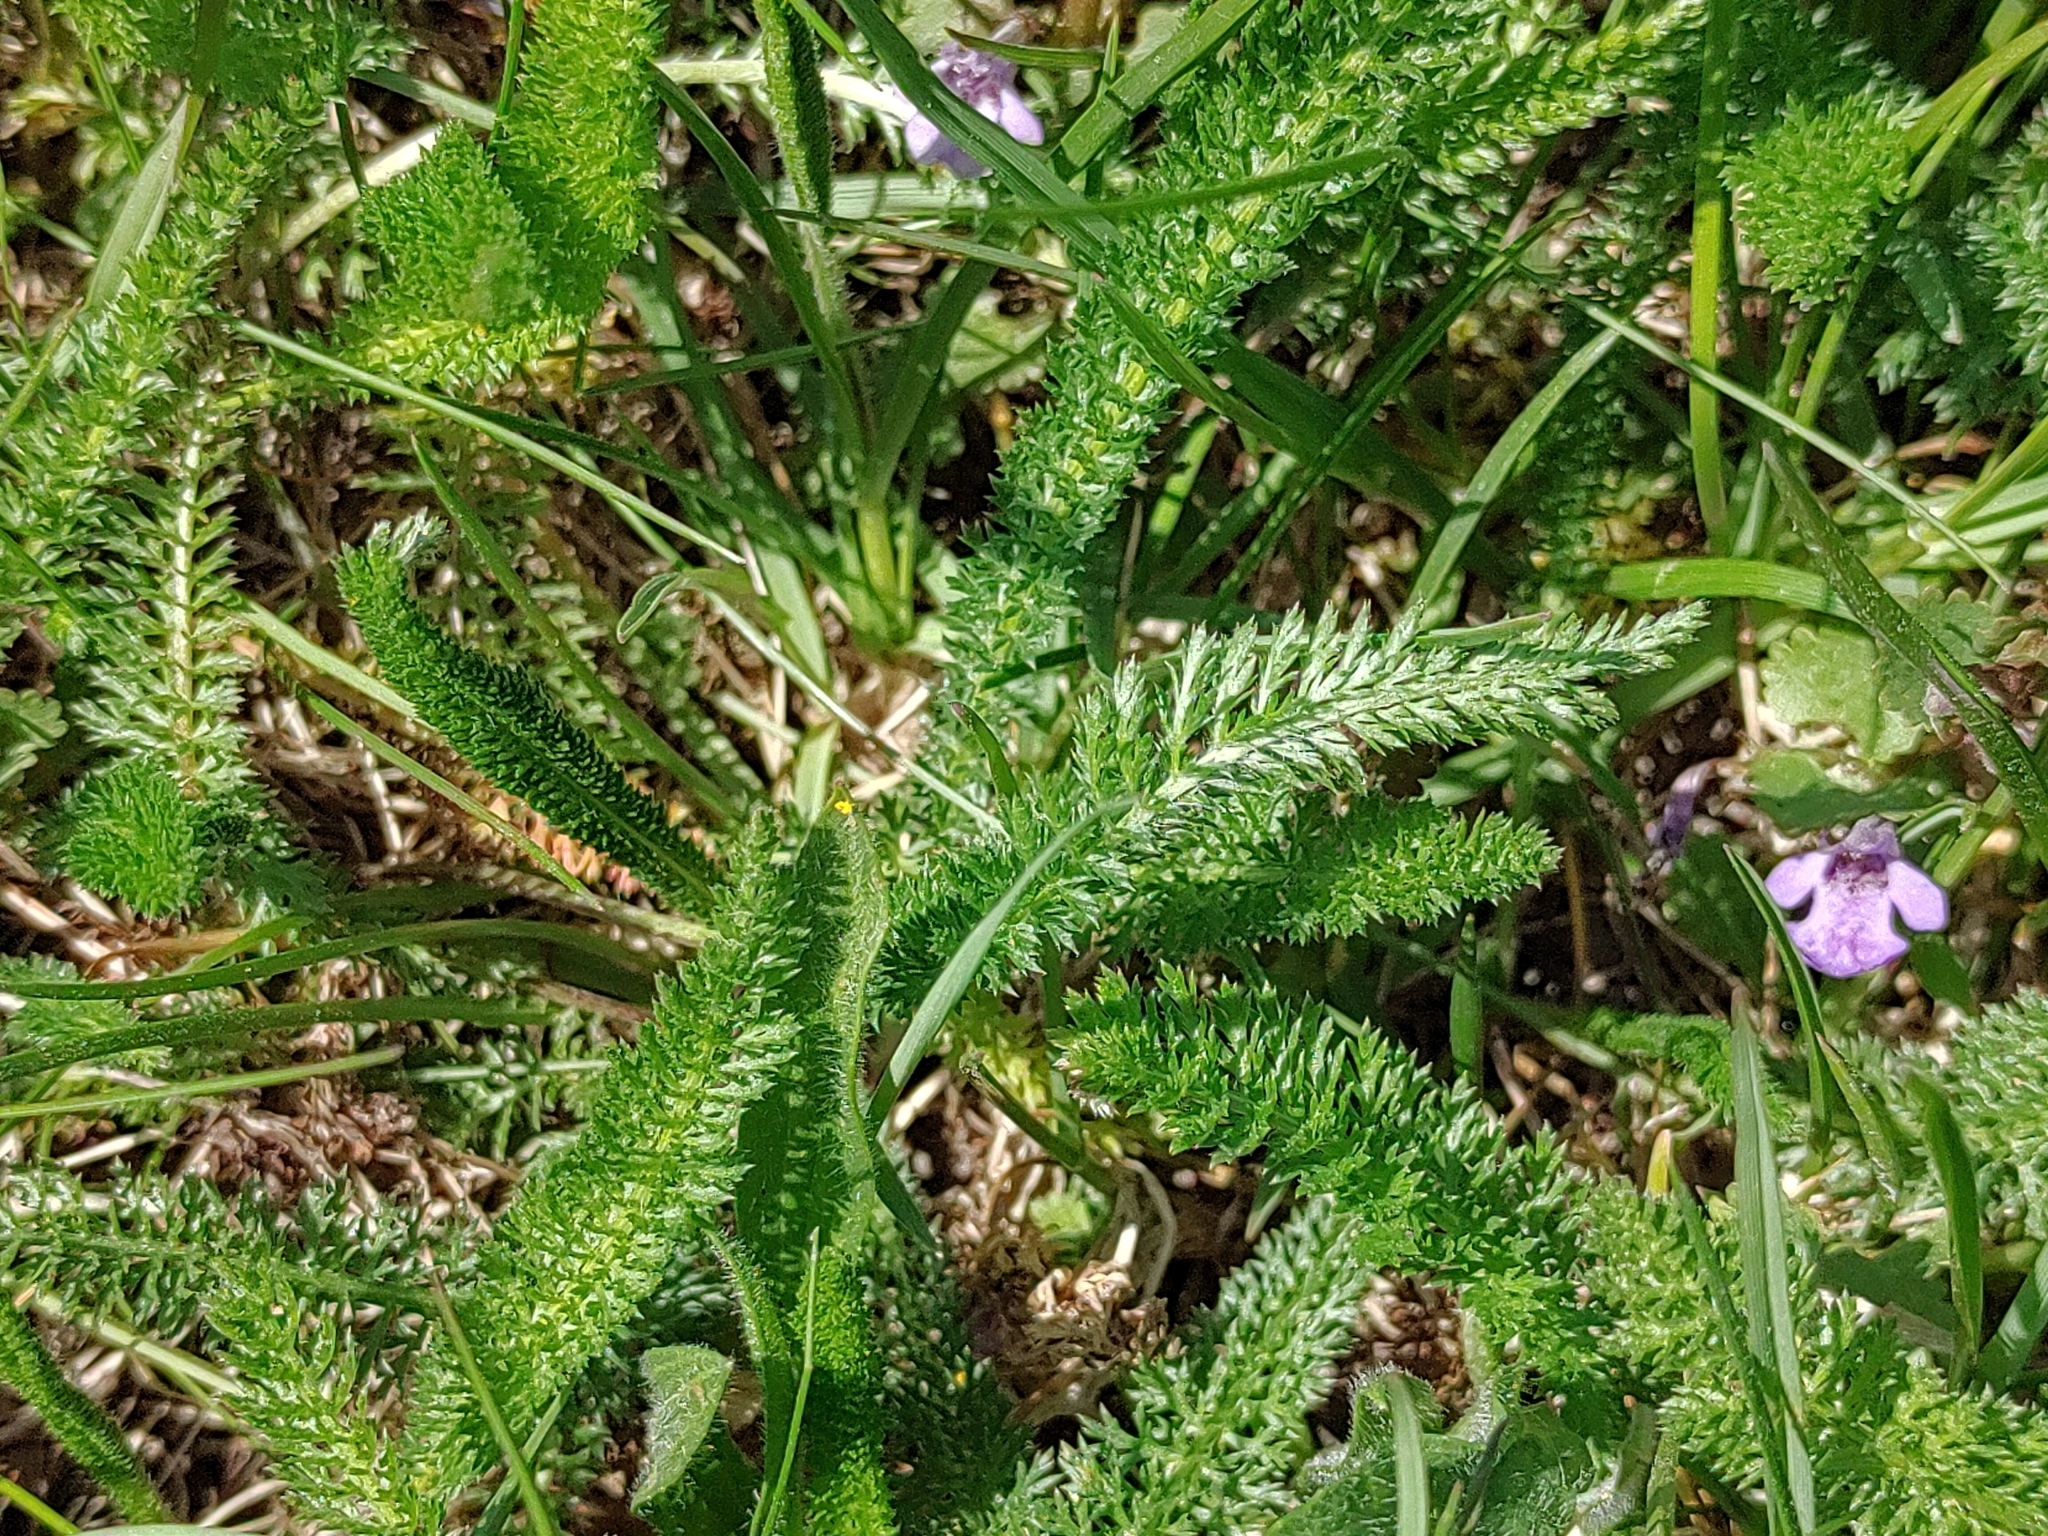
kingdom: Plantae
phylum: Tracheophyta
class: Magnoliopsida
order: Asterales
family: Asteraceae
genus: Achillea
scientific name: Achillea millefolium
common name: Yarrow
